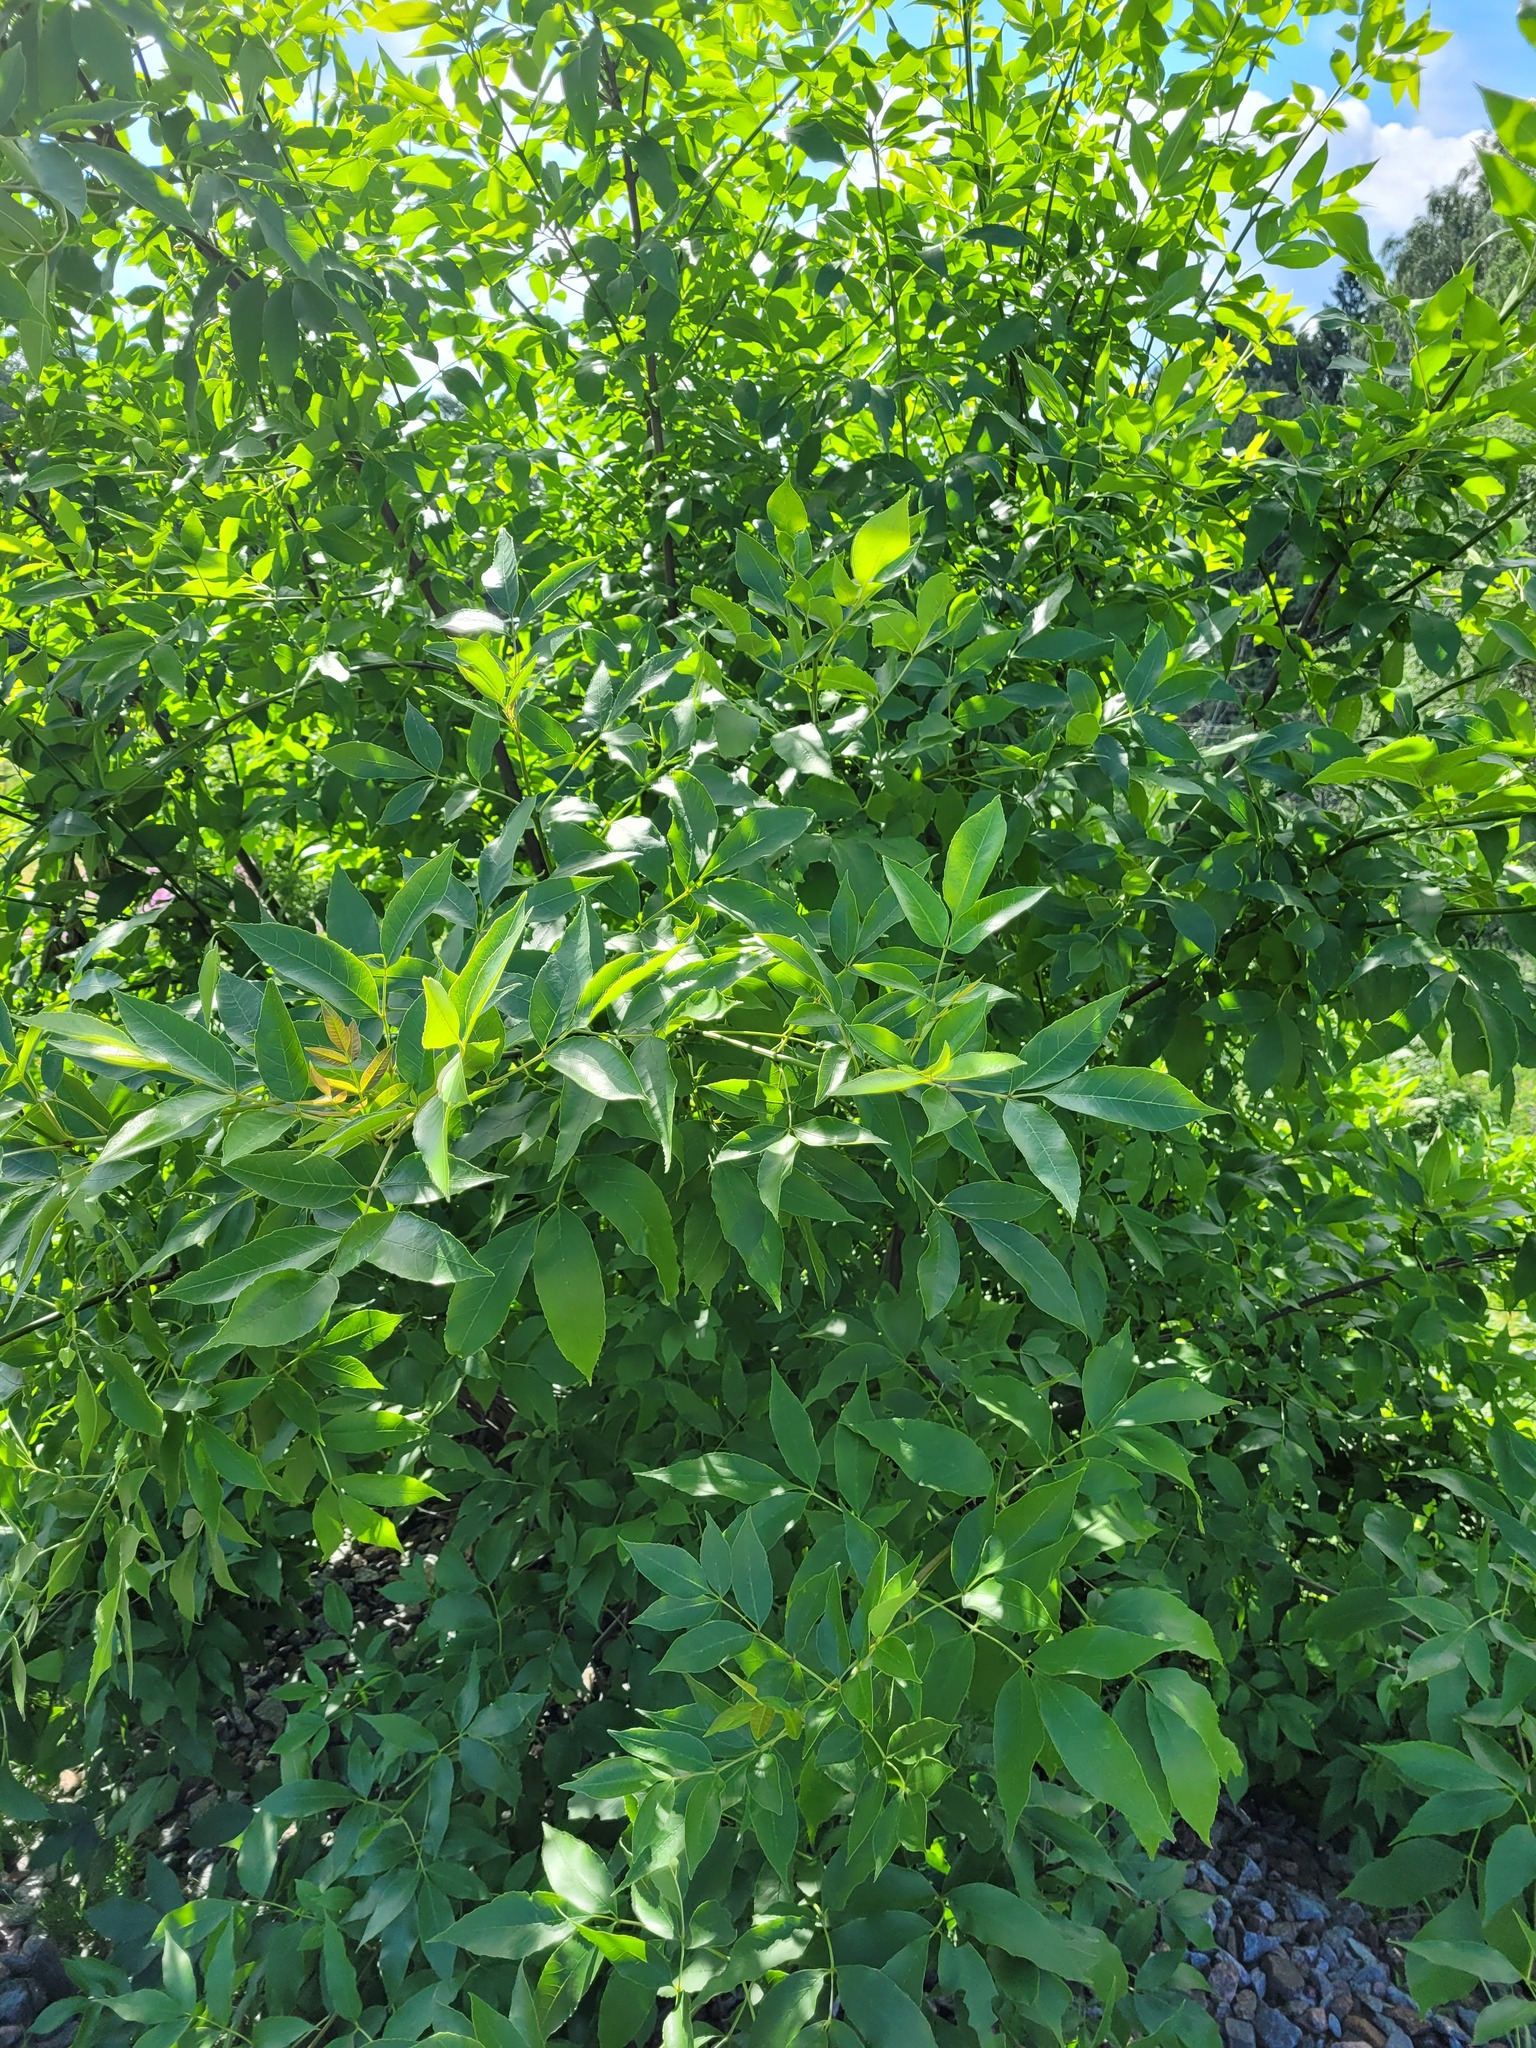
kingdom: Plantae
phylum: Tracheophyta
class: Magnoliopsida
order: Lamiales
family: Oleaceae
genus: Fraxinus
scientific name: Fraxinus pennsylvanica
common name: Green ash
